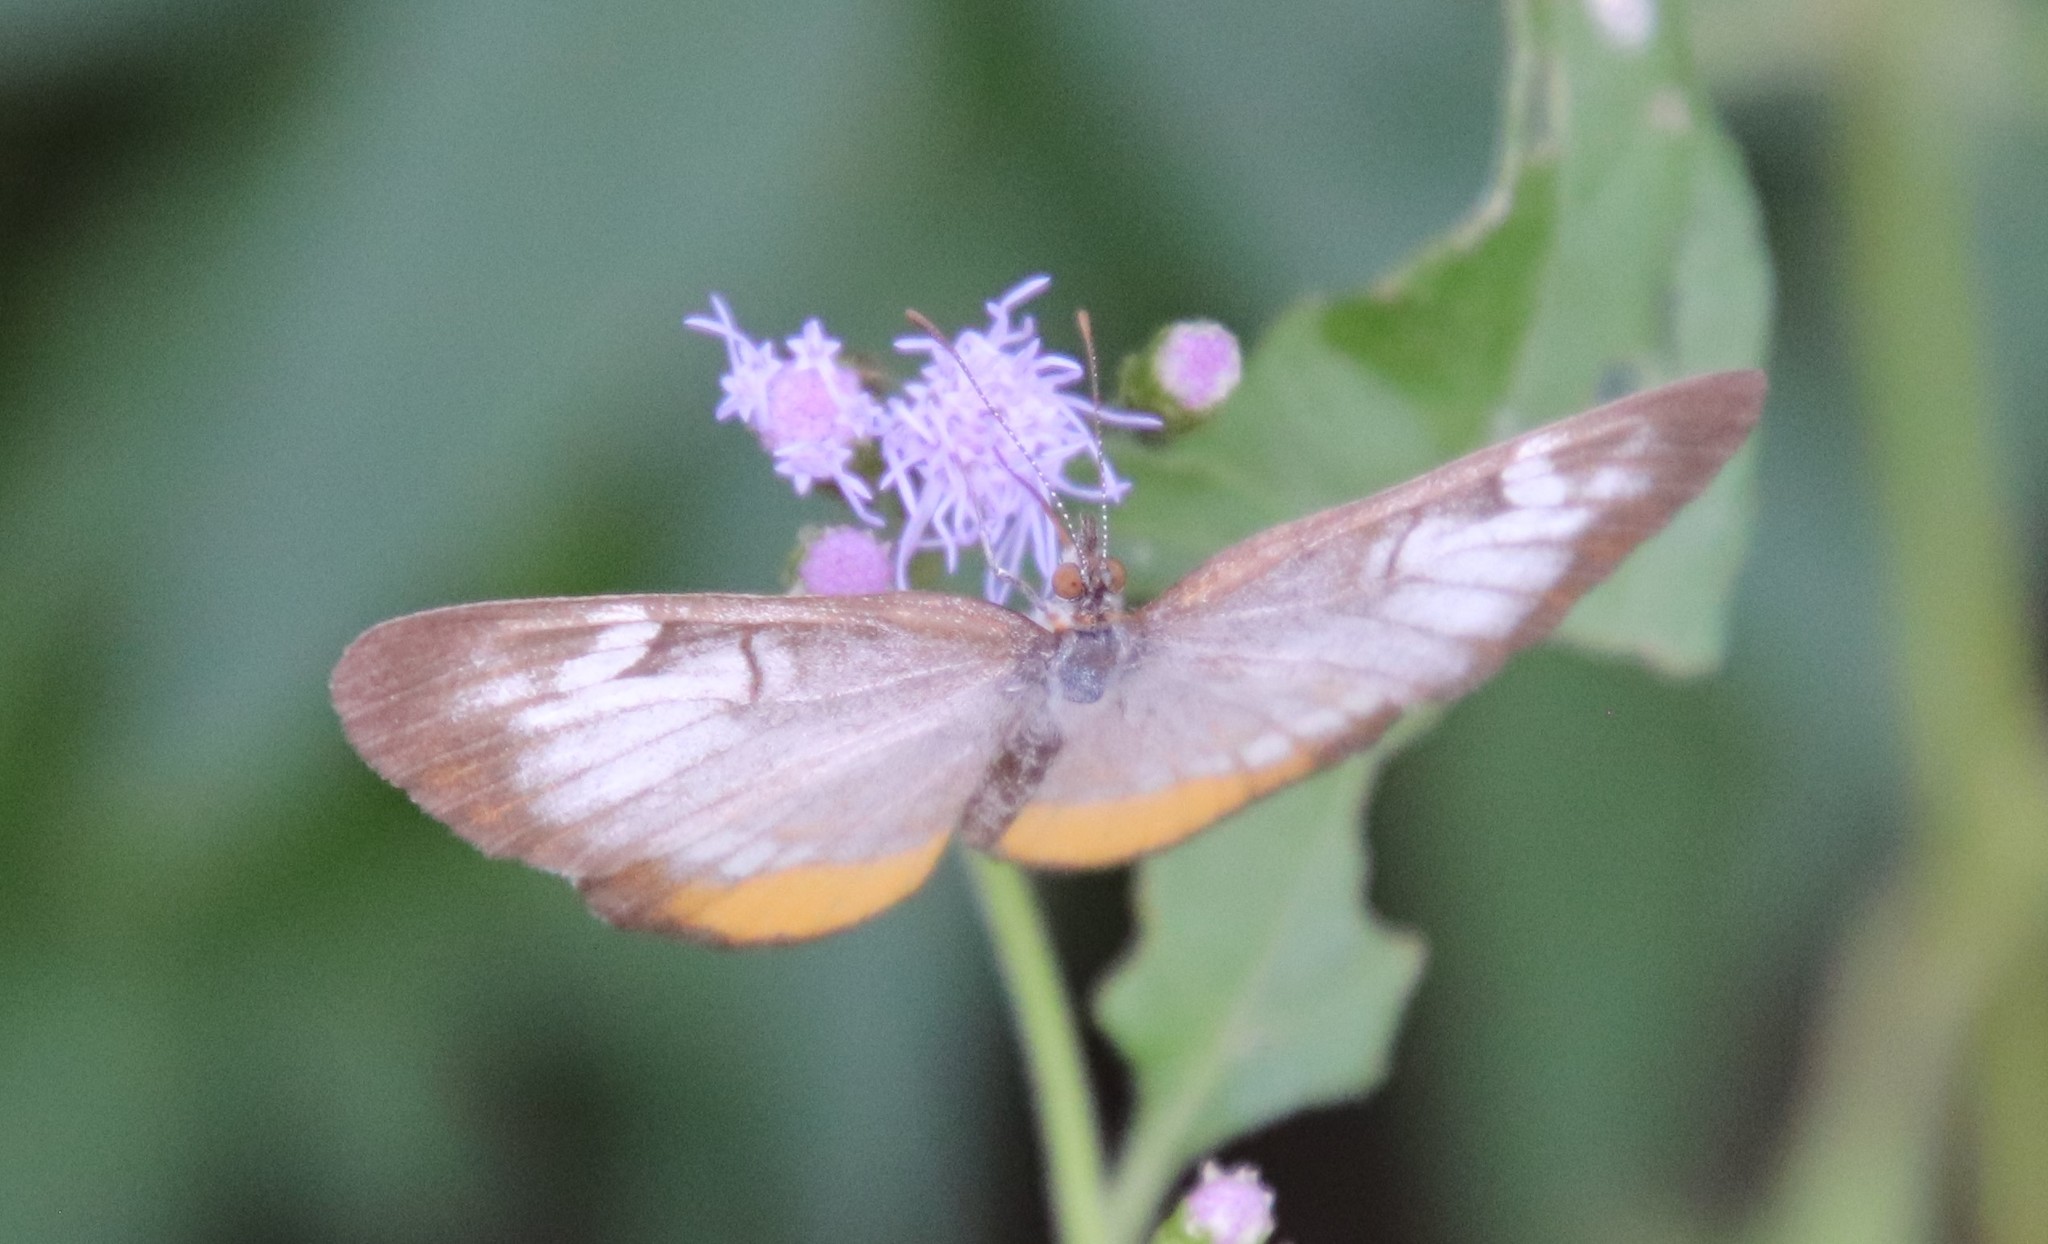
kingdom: Animalia
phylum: Arthropoda
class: Insecta
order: Lepidoptera
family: Nymphalidae
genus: Mestra
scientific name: Mestra amymone
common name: Common mestra
